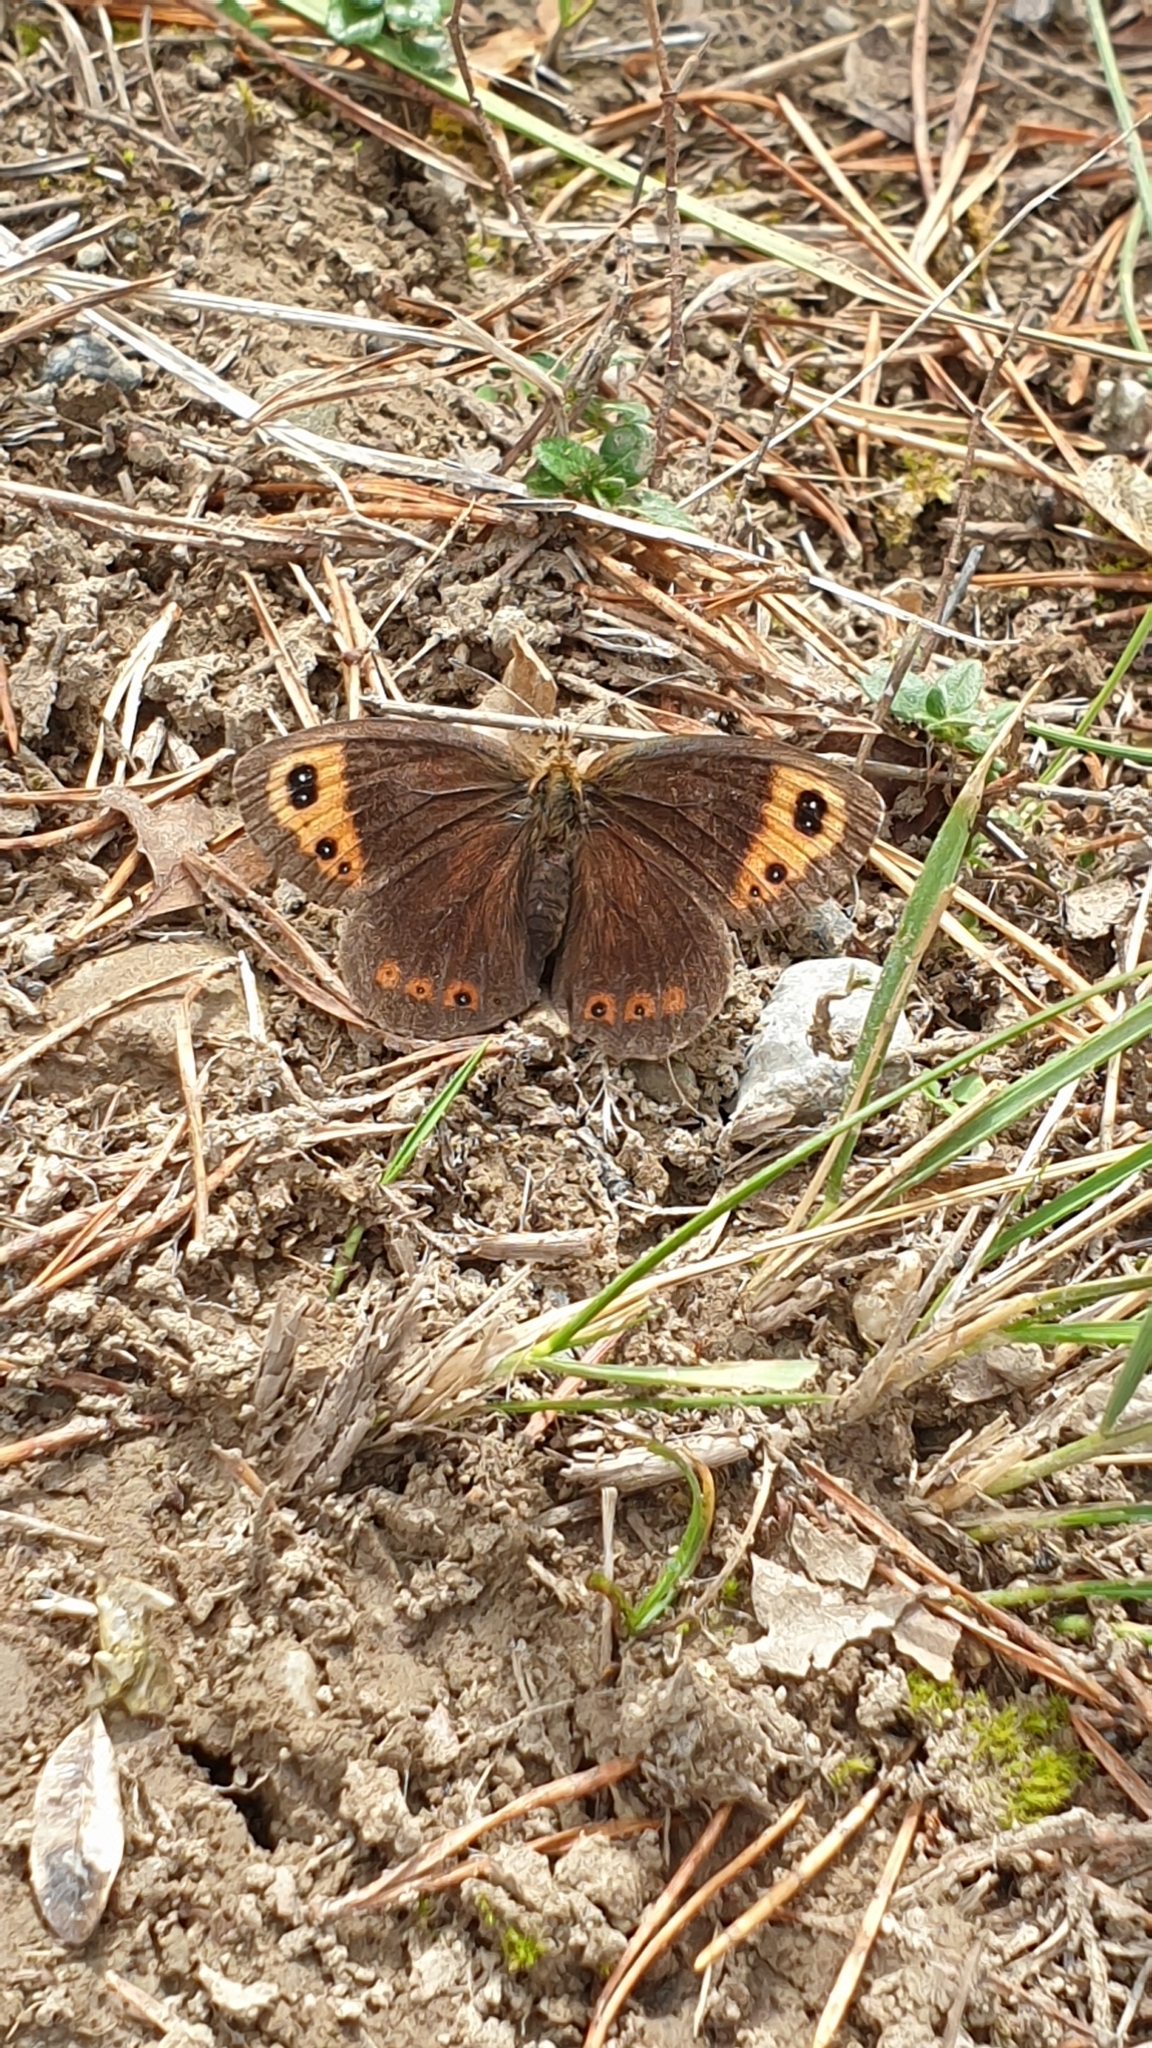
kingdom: Animalia
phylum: Arthropoda
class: Insecta
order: Lepidoptera
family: Nymphalidae
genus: Erebia
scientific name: Erebia neoridas
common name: Autumn ringlet
